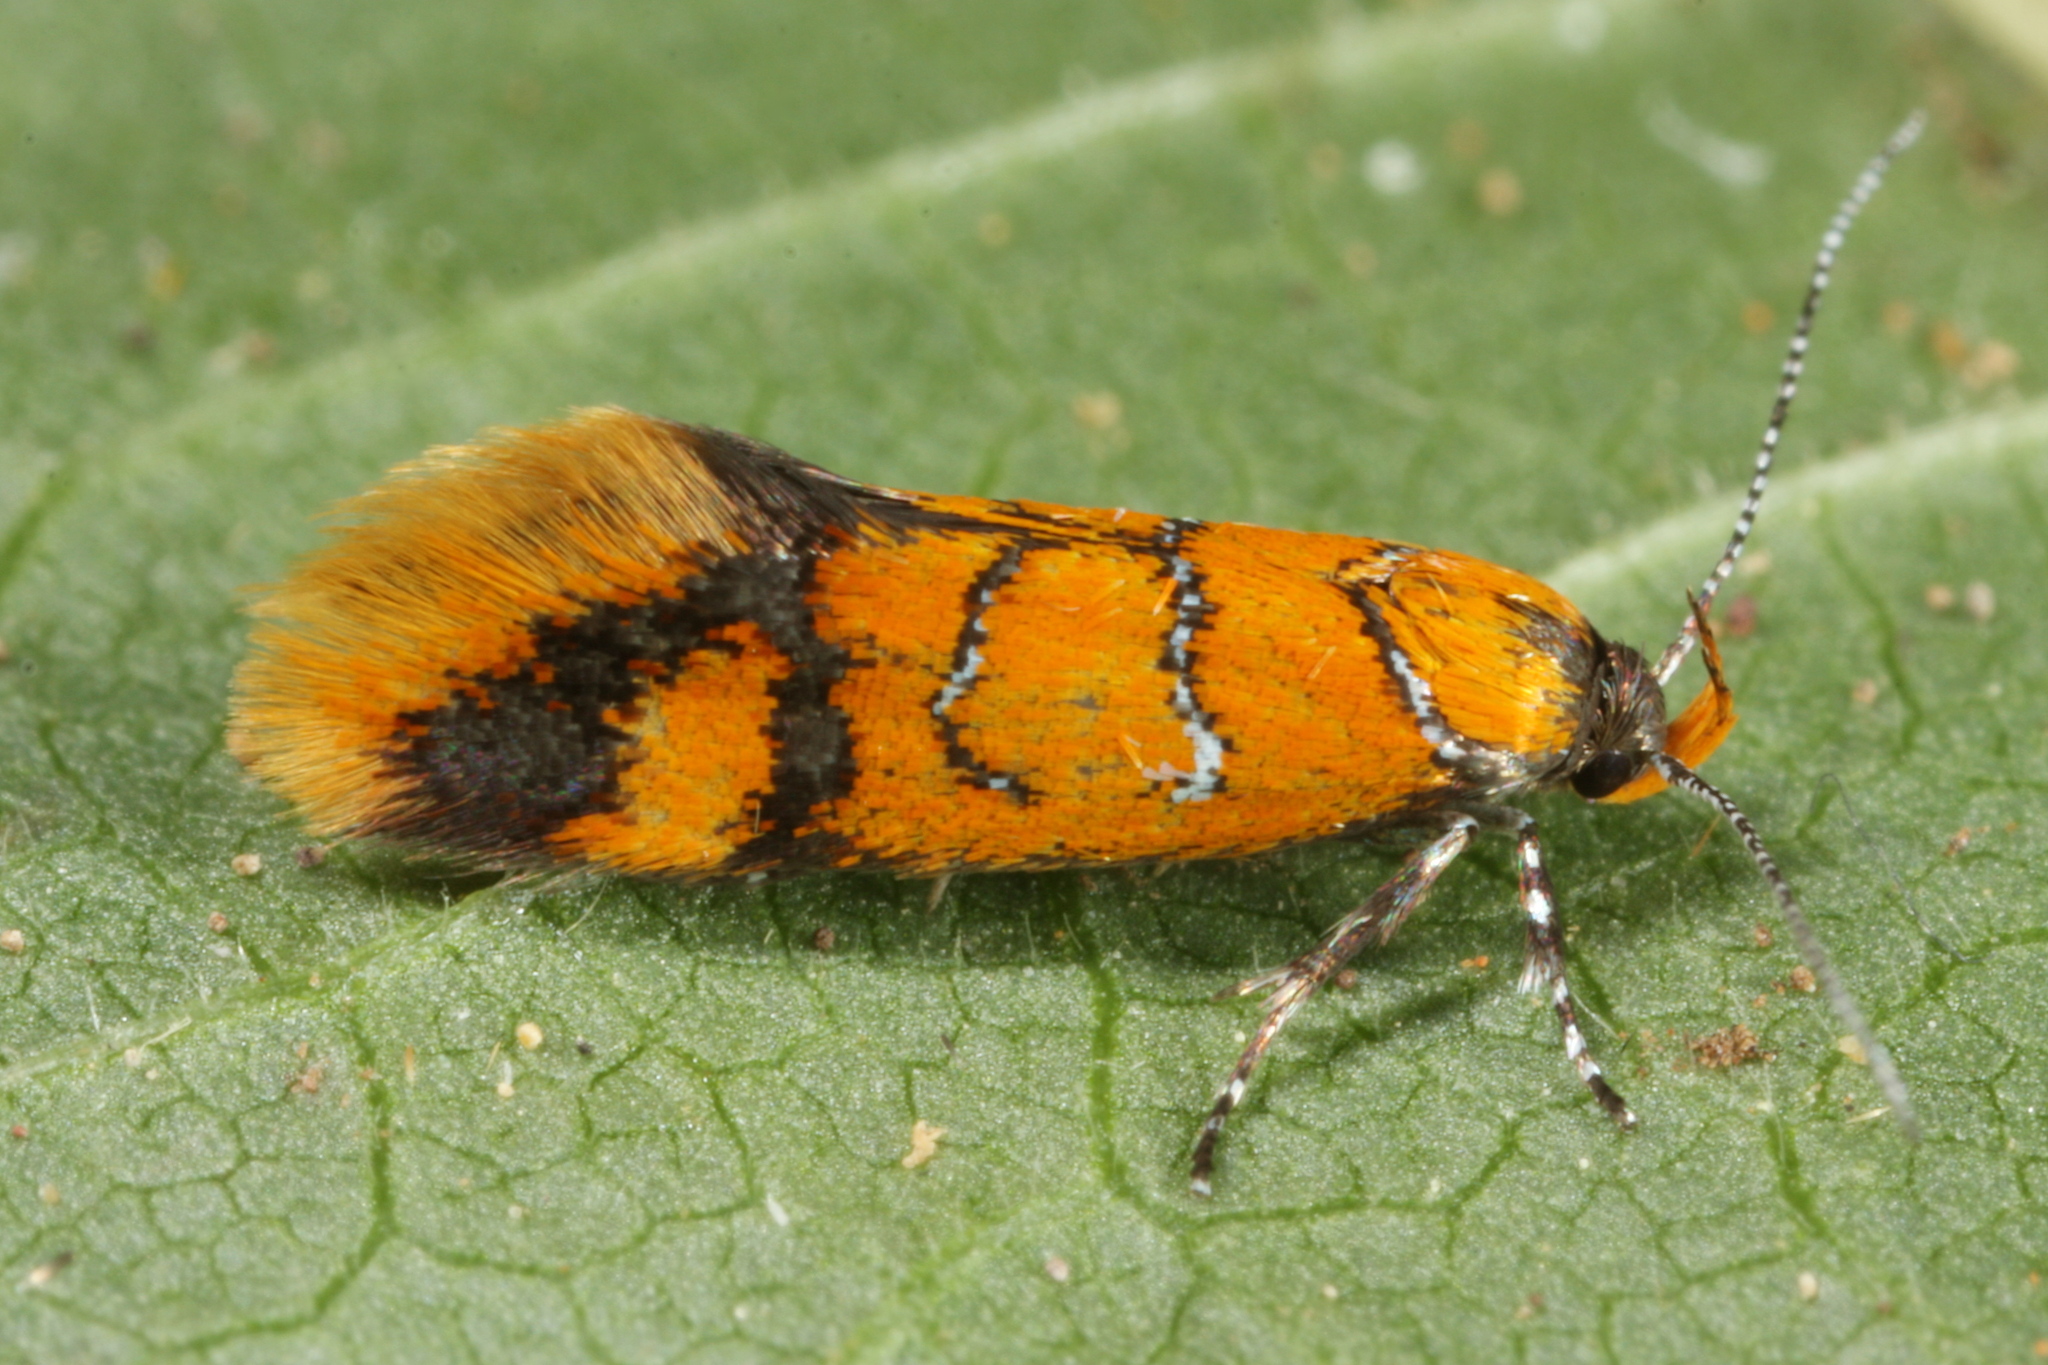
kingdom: Animalia
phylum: Arthropoda
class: Insecta
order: Lepidoptera
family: Oecophoridae
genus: Schiffermuelleria
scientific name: Schiffermuelleria procerella
